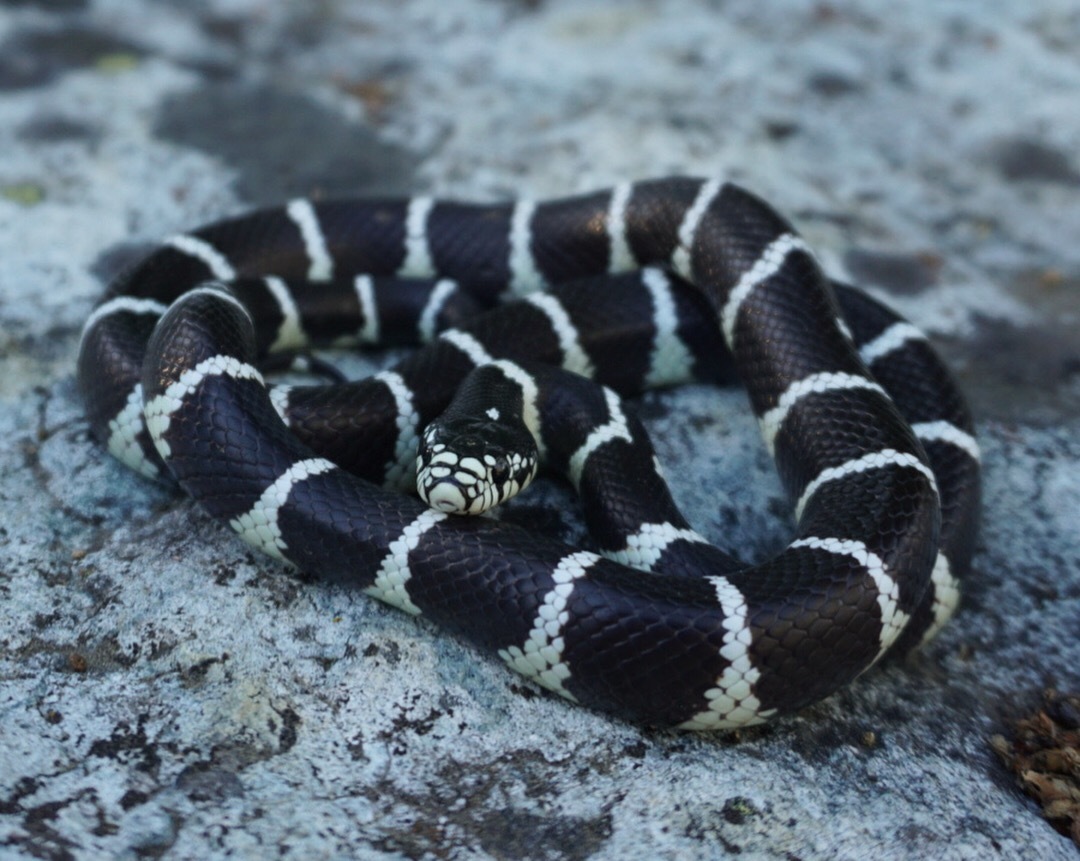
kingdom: Animalia
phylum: Chordata
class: Squamata
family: Colubridae
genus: Lampropeltis
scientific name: Lampropeltis californiae
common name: California kingsnake
